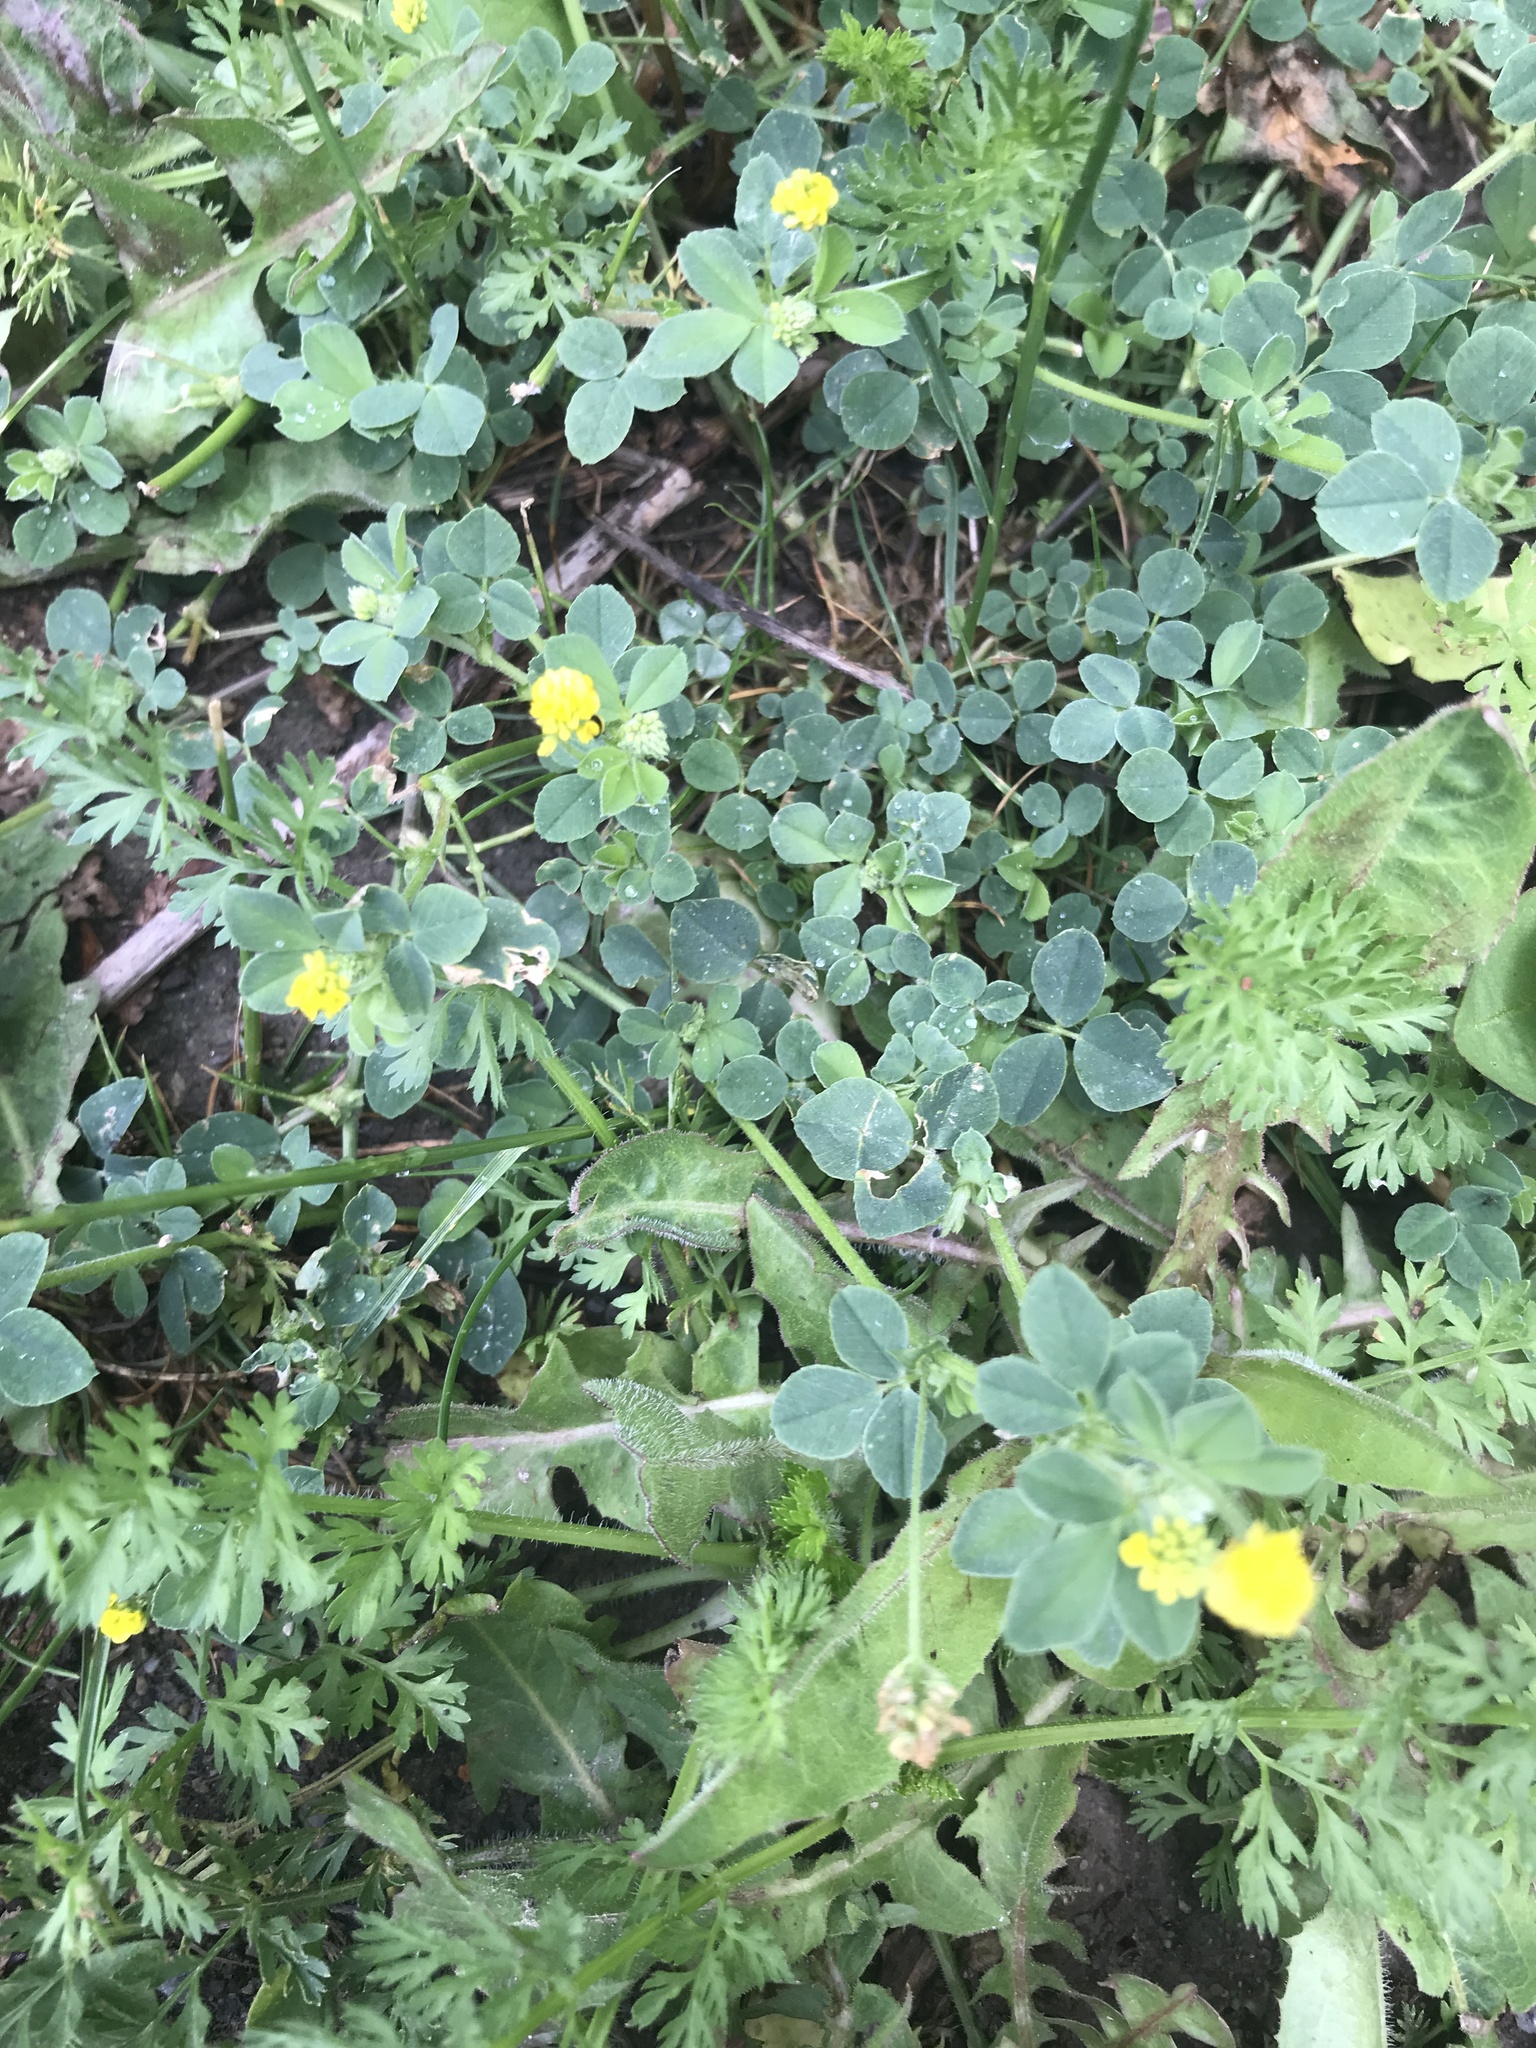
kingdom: Plantae
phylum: Tracheophyta
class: Magnoliopsida
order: Fabales
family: Fabaceae
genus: Medicago
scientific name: Medicago lupulina
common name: Black medick
